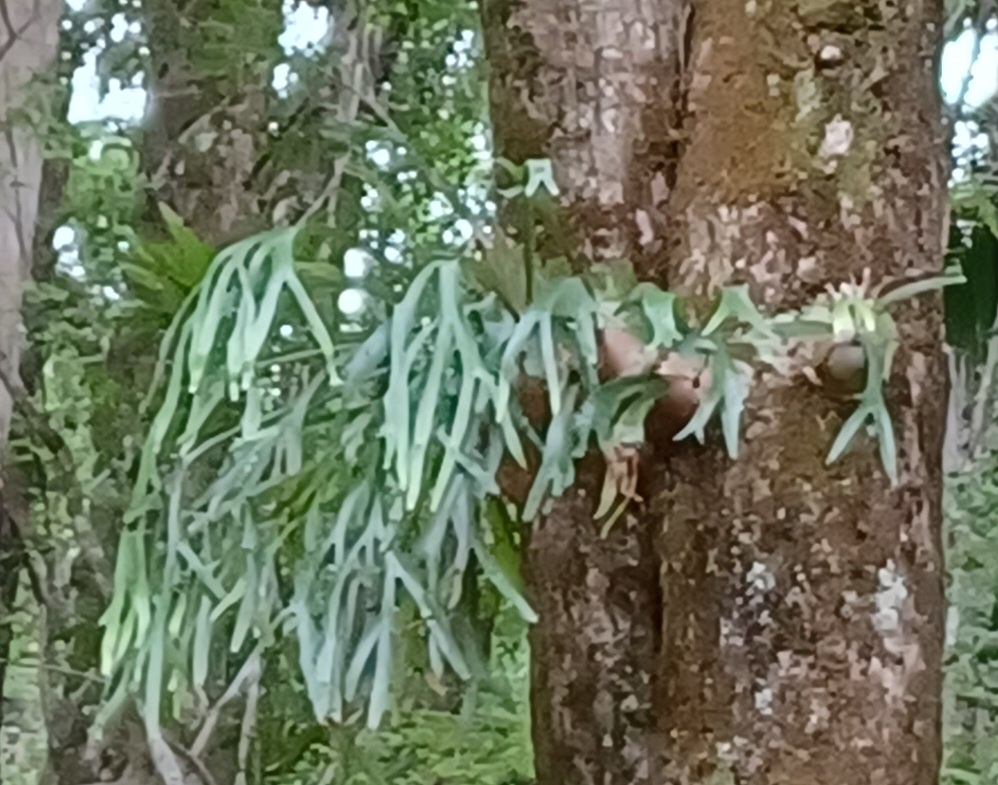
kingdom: Plantae
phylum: Tracheophyta
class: Polypodiopsida
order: Polypodiales
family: Polypodiaceae
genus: Platycerium
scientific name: Platycerium bifurcatum
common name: Elkhorn fern
